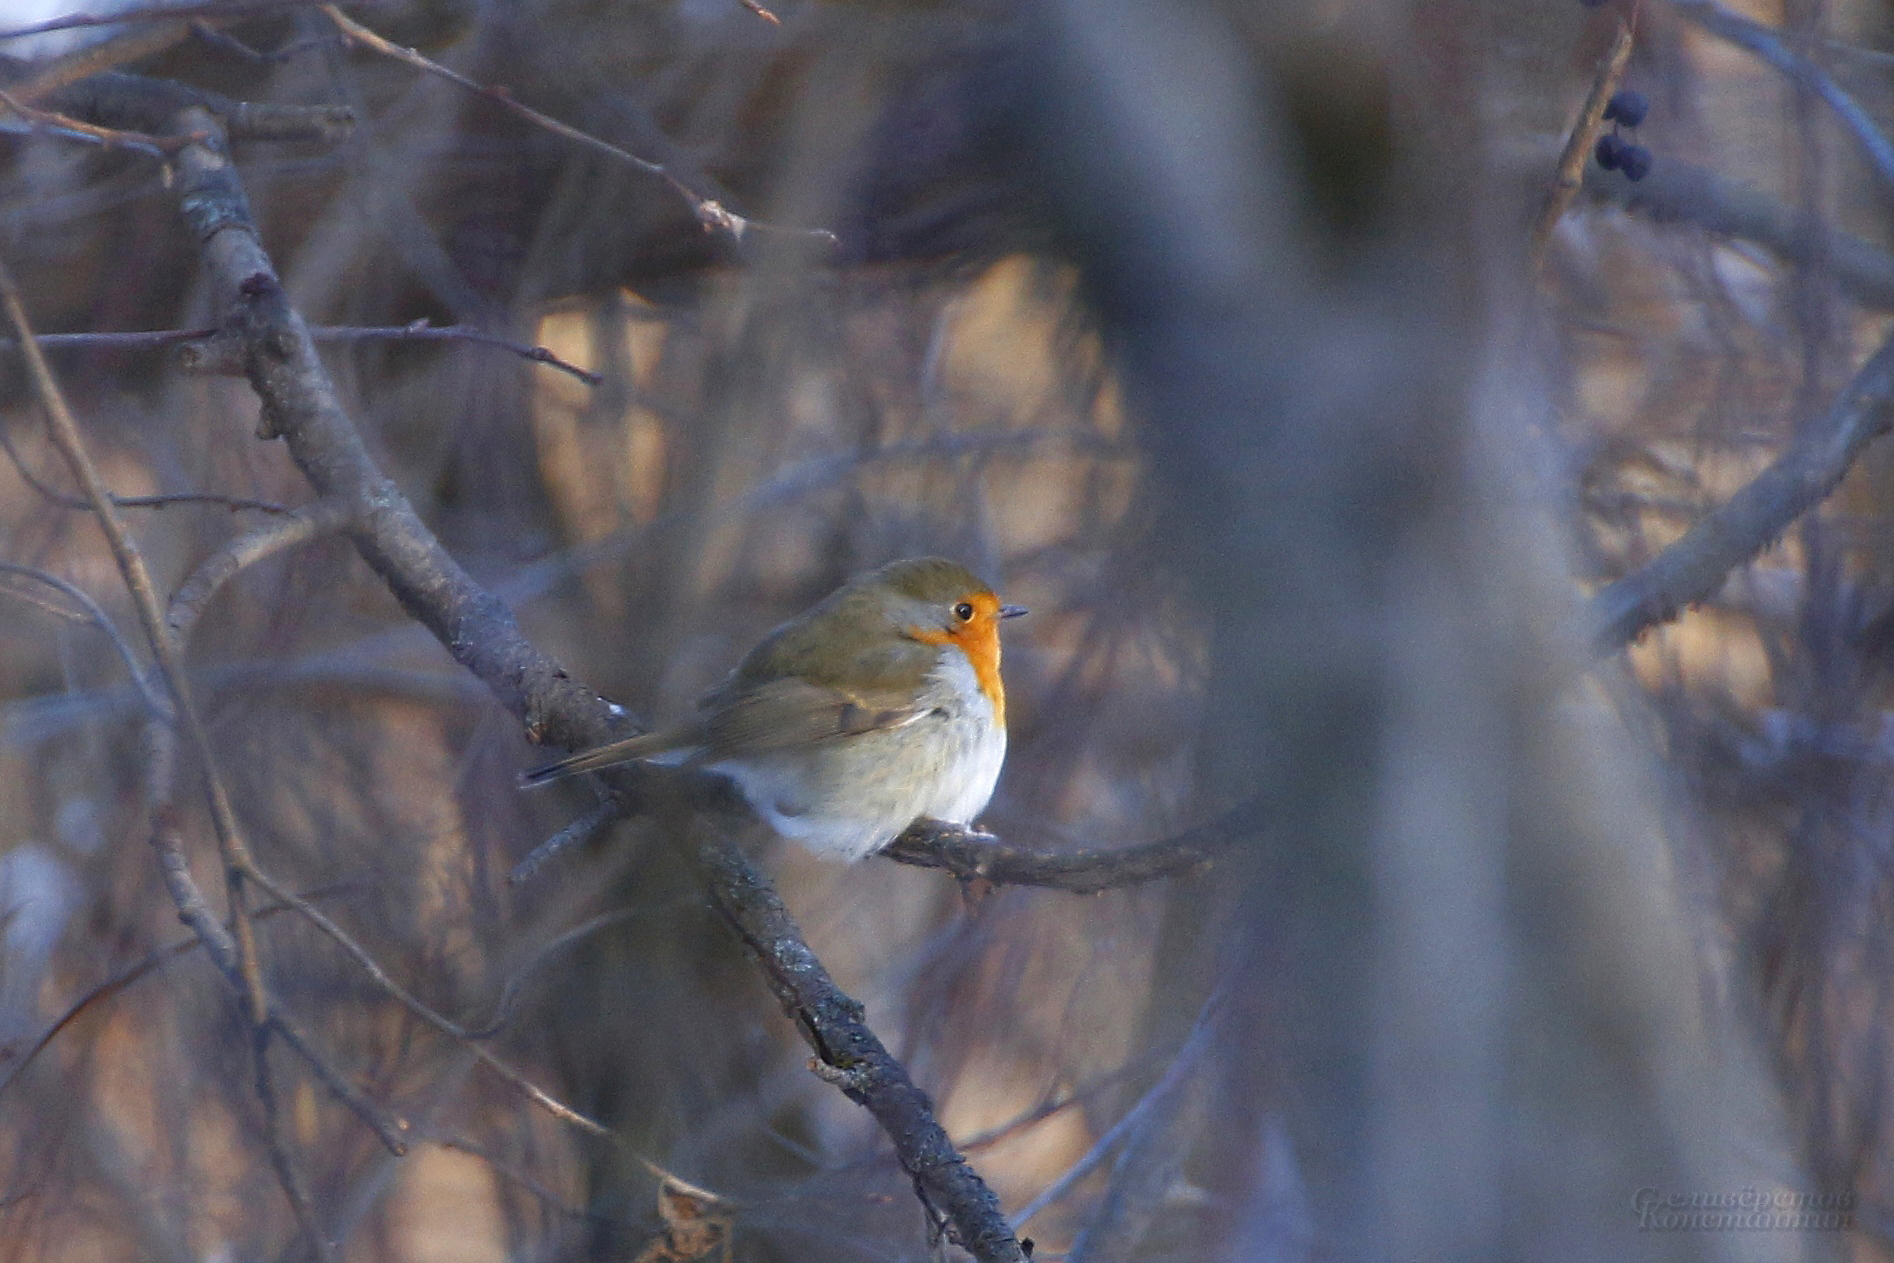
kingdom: Animalia
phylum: Chordata
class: Aves
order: Passeriformes
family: Muscicapidae
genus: Erithacus
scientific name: Erithacus rubecula
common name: European robin
